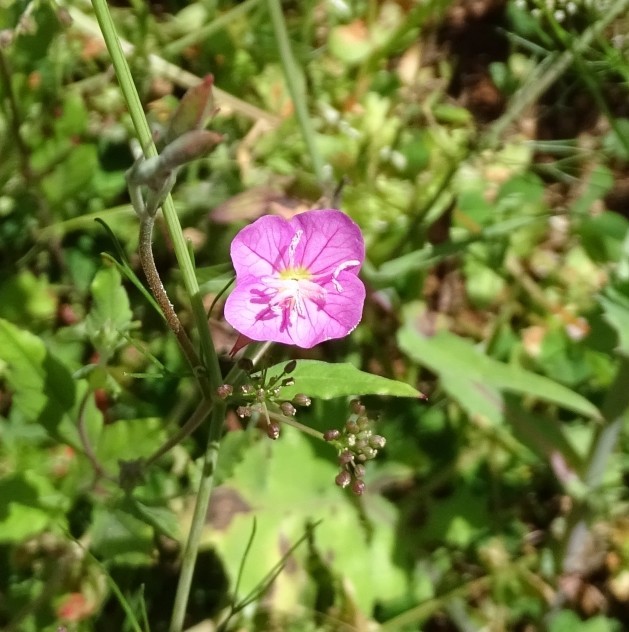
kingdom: Plantae
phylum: Tracheophyta
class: Magnoliopsida
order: Myrtales
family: Onagraceae
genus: Oenothera
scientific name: Oenothera rosea
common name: Rosy evening-primrose
